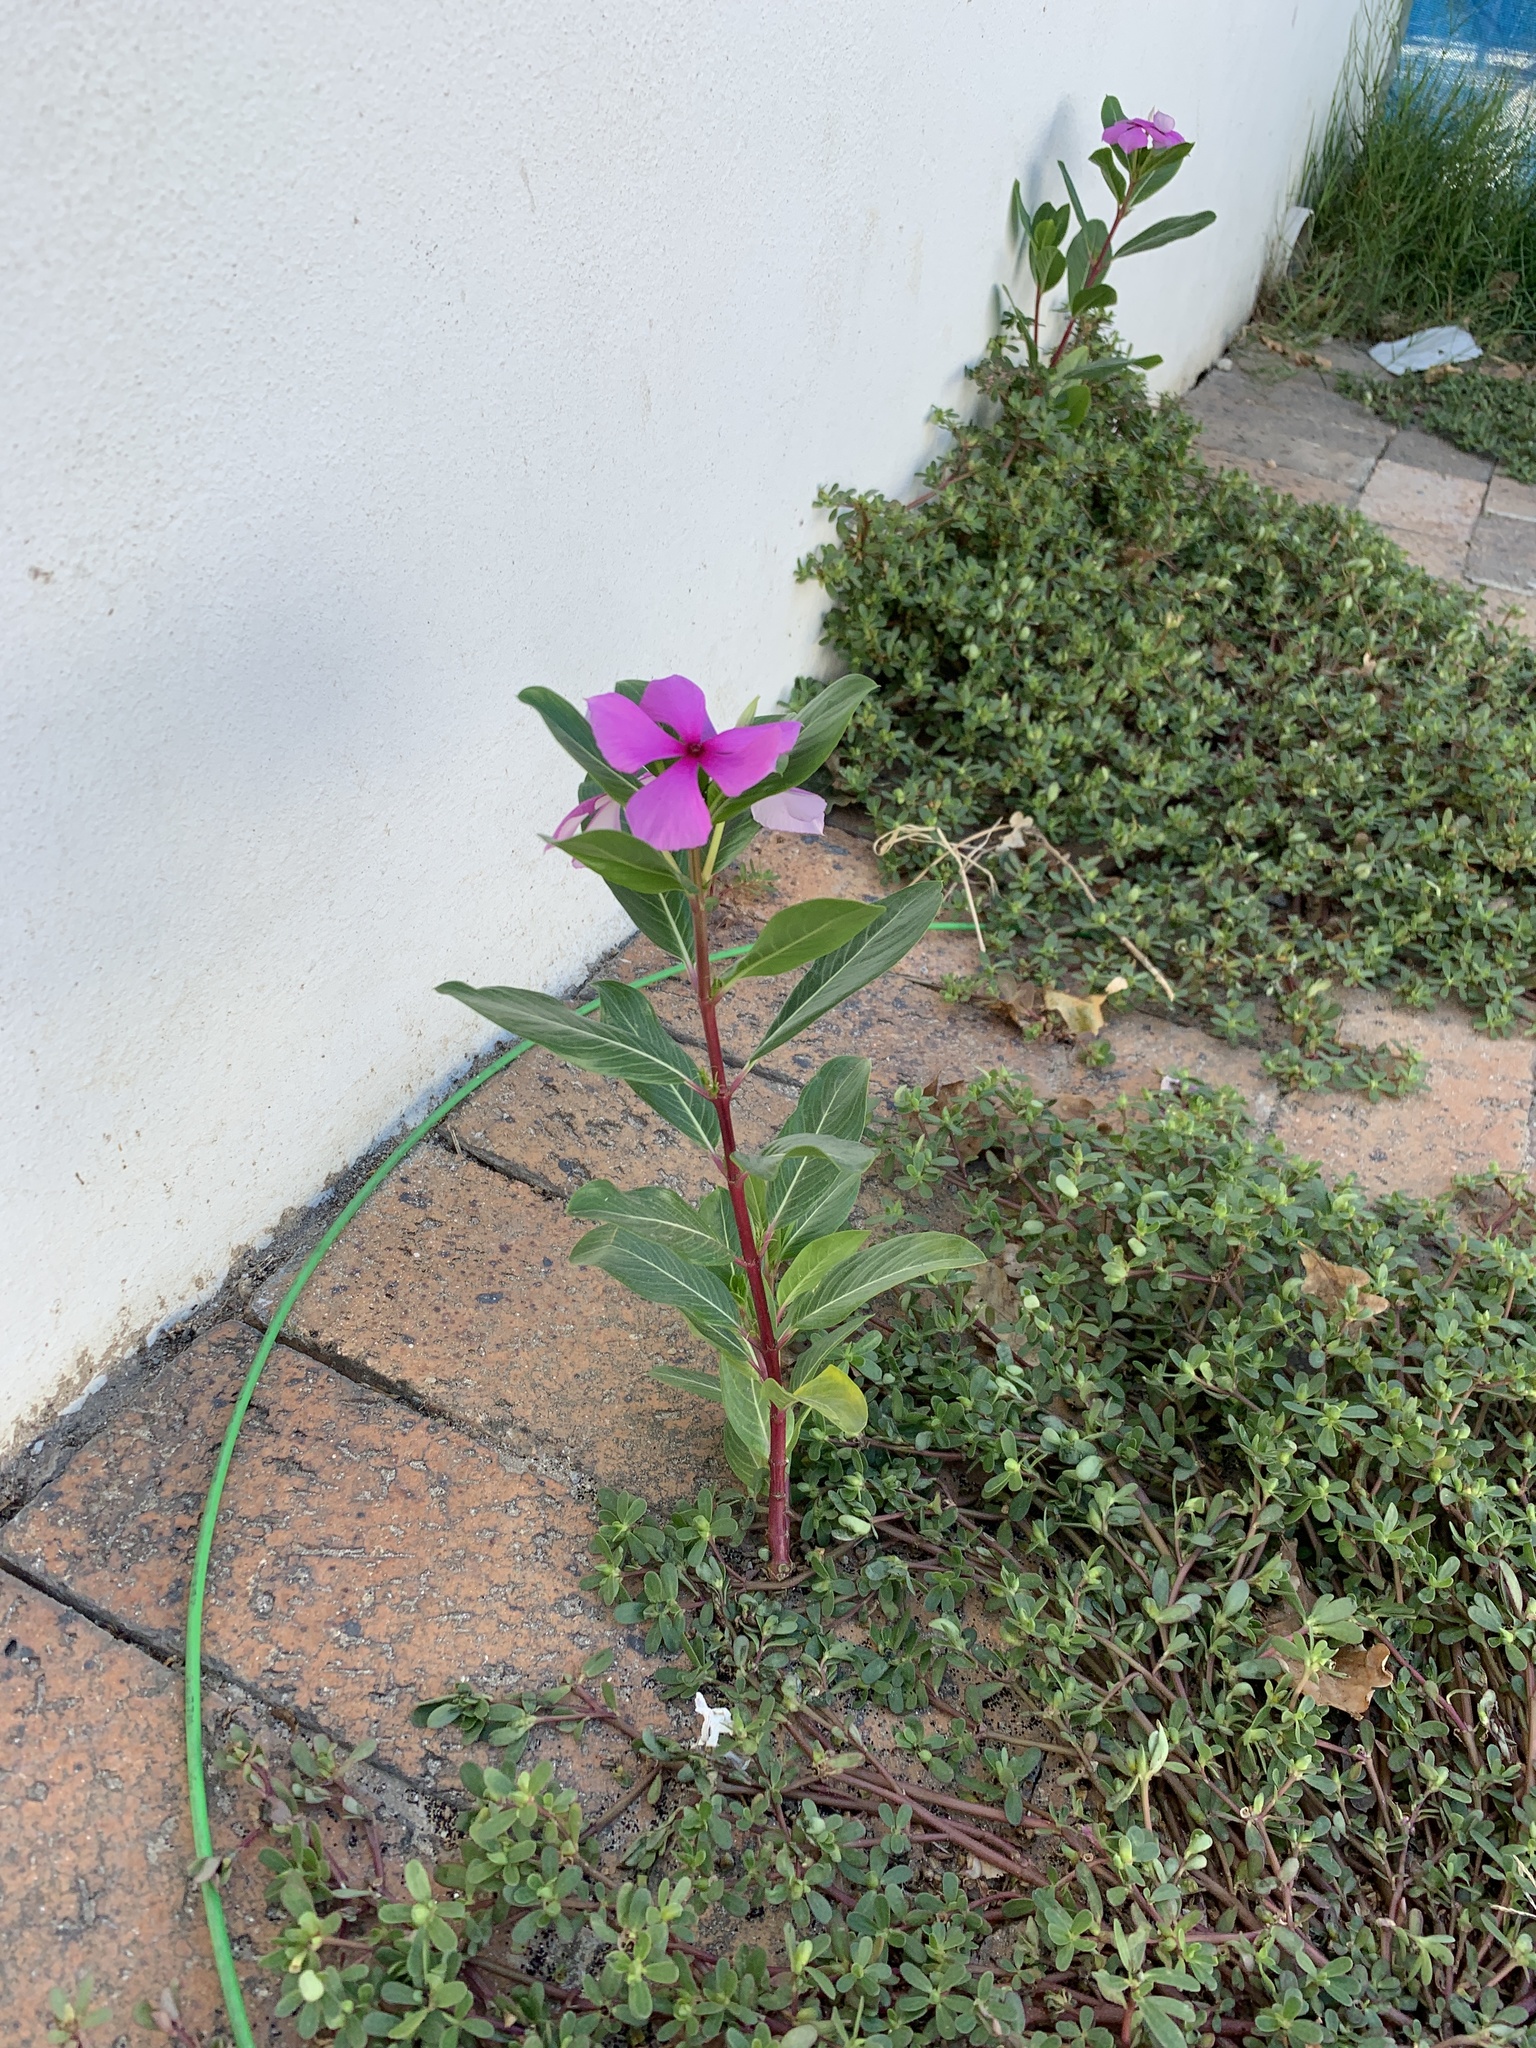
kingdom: Plantae
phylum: Tracheophyta
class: Magnoliopsida
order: Gentianales
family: Apocynaceae
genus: Catharanthus
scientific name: Catharanthus roseus
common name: Madagascar periwinkle
